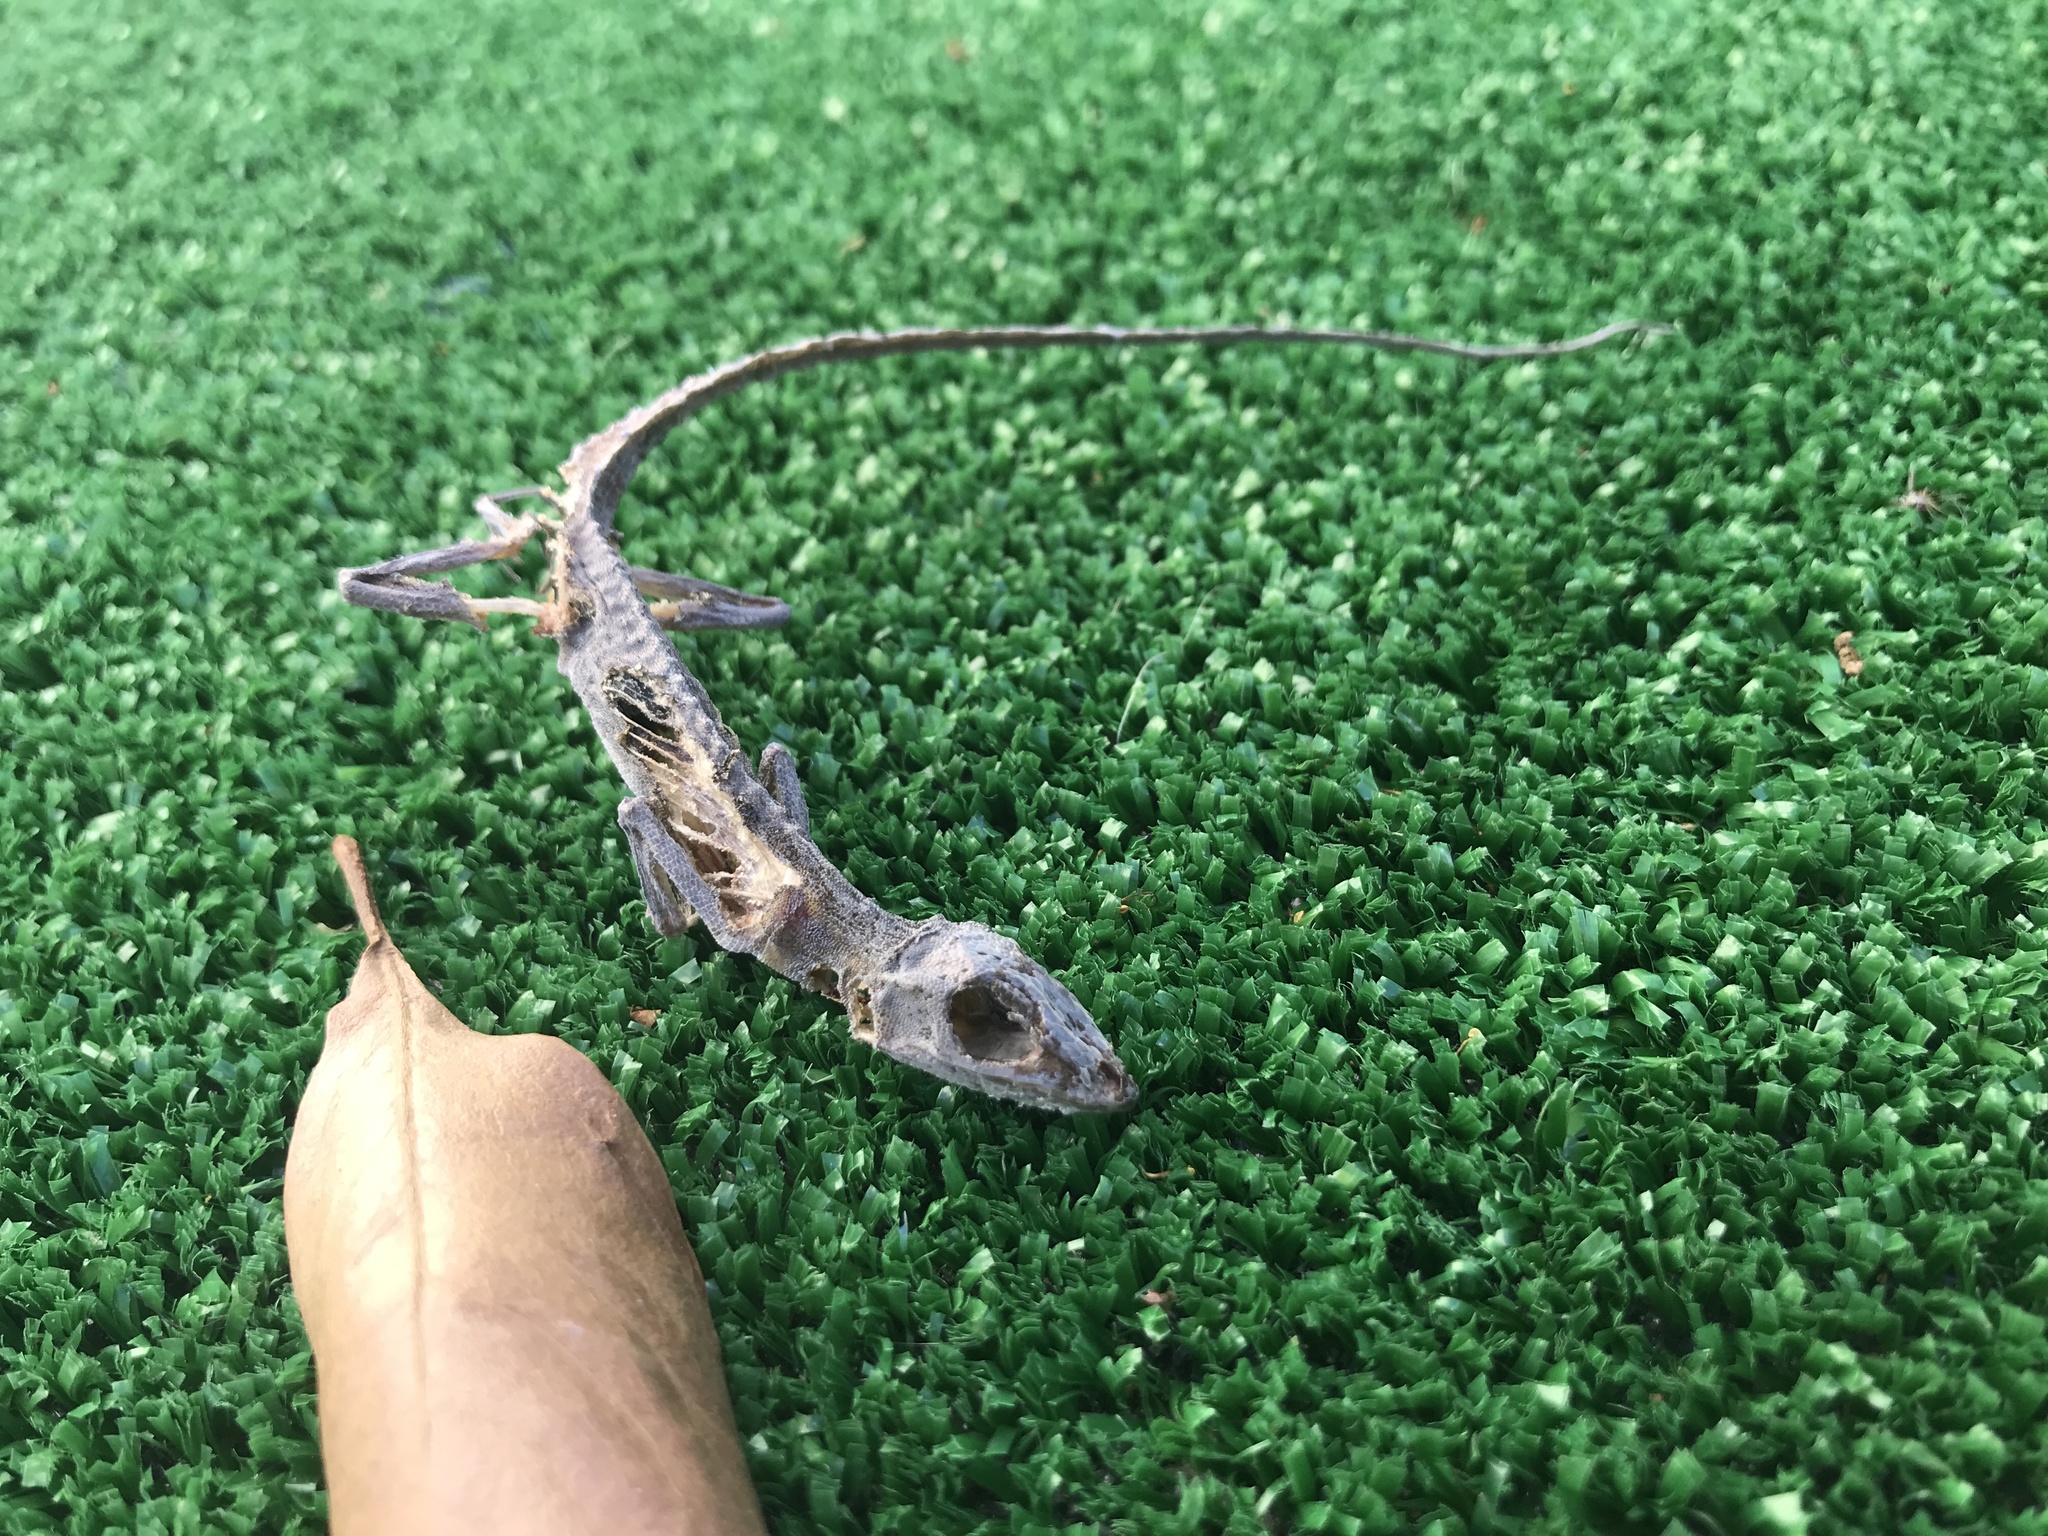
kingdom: Animalia
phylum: Chordata
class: Squamata
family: Dactyloidae
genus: Anolis
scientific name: Anolis sagrei
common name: Brown anole
